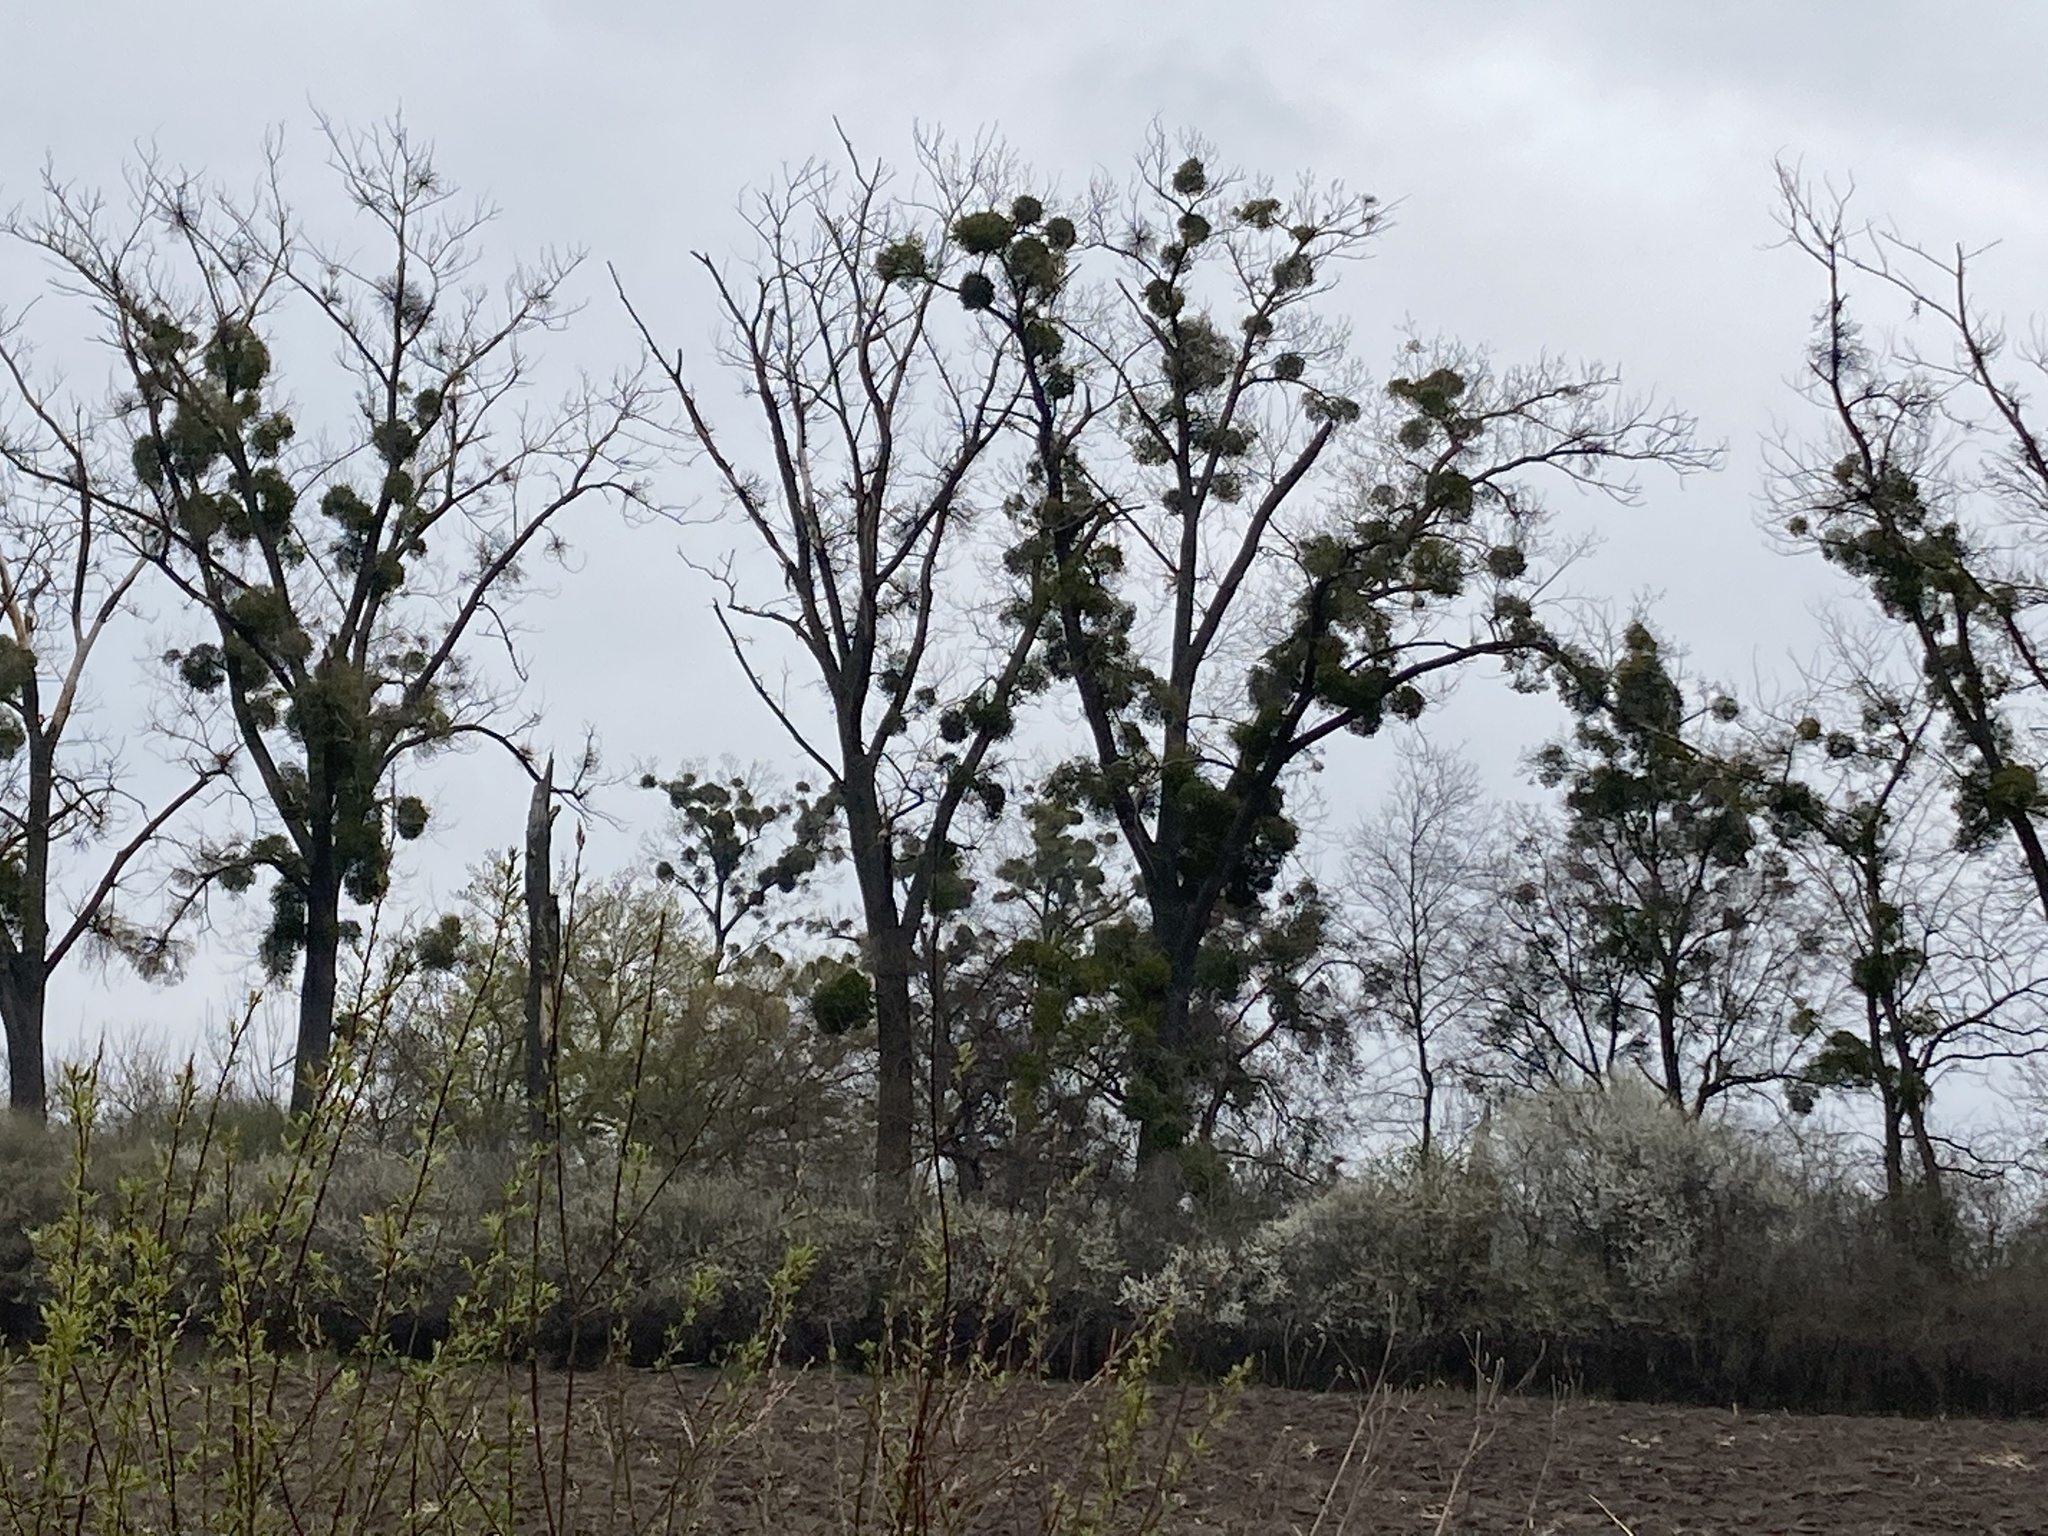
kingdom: Plantae
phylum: Tracheophyta
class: Magnoliopsida
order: Santalales
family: Viscaceae
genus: Viscum
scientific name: Viscum album
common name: Mistletoe
